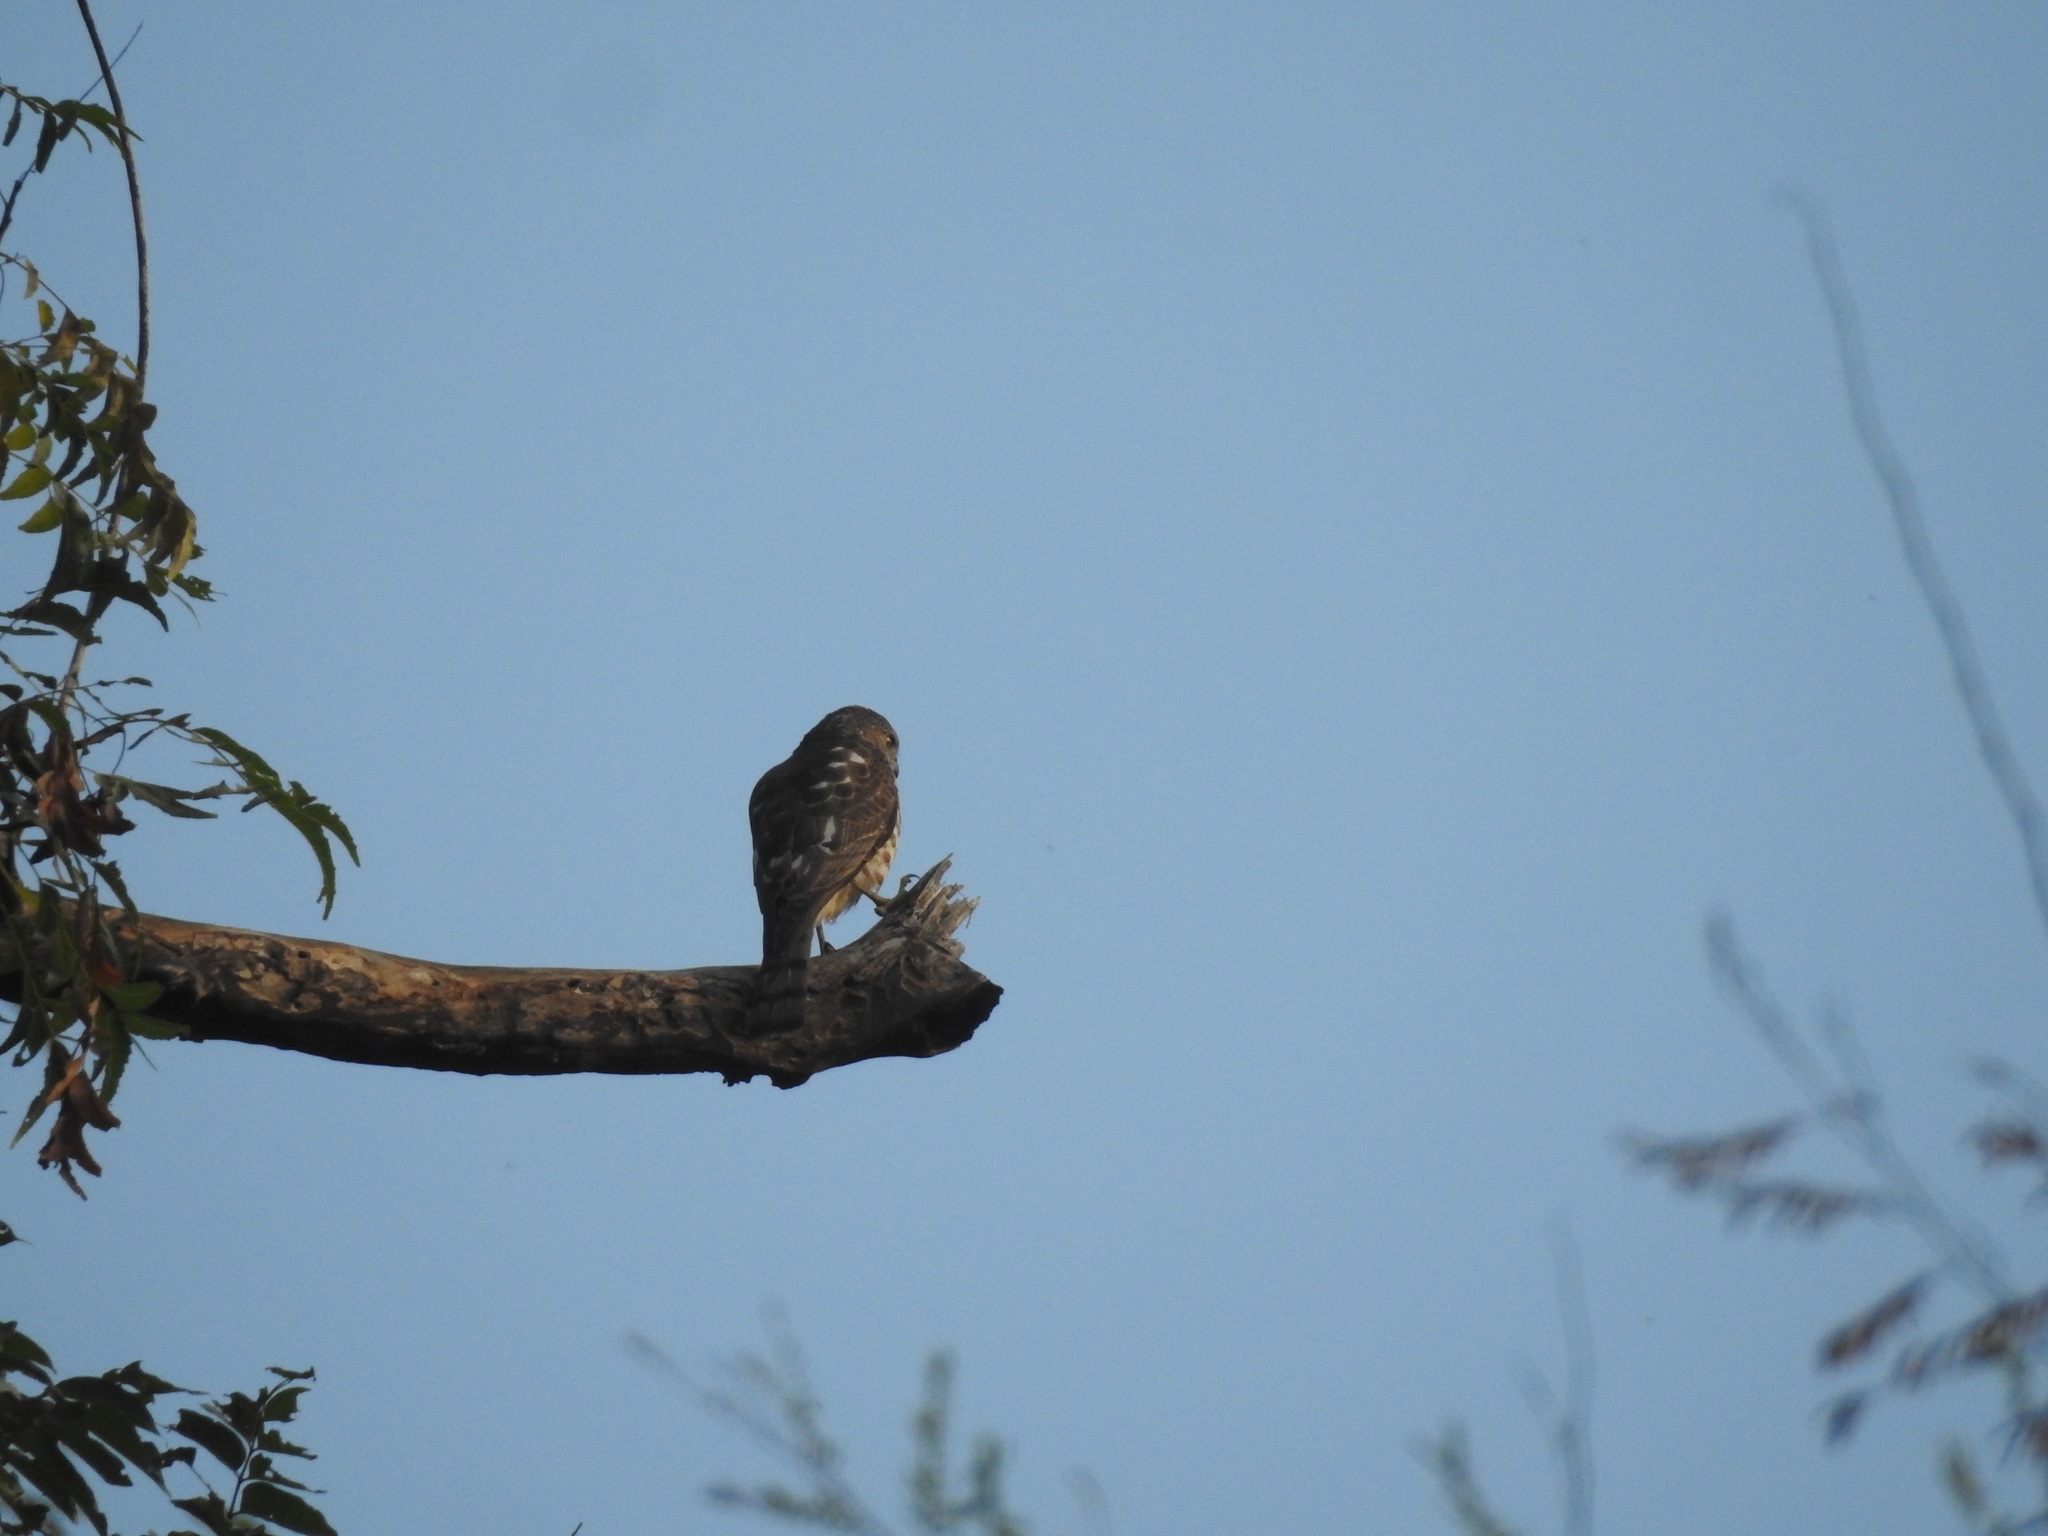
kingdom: Animalia
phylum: Chordata
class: Aves
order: Accipitriformes
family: Accipitridae
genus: Accipiter
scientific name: Accipiter badius
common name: Shikra
